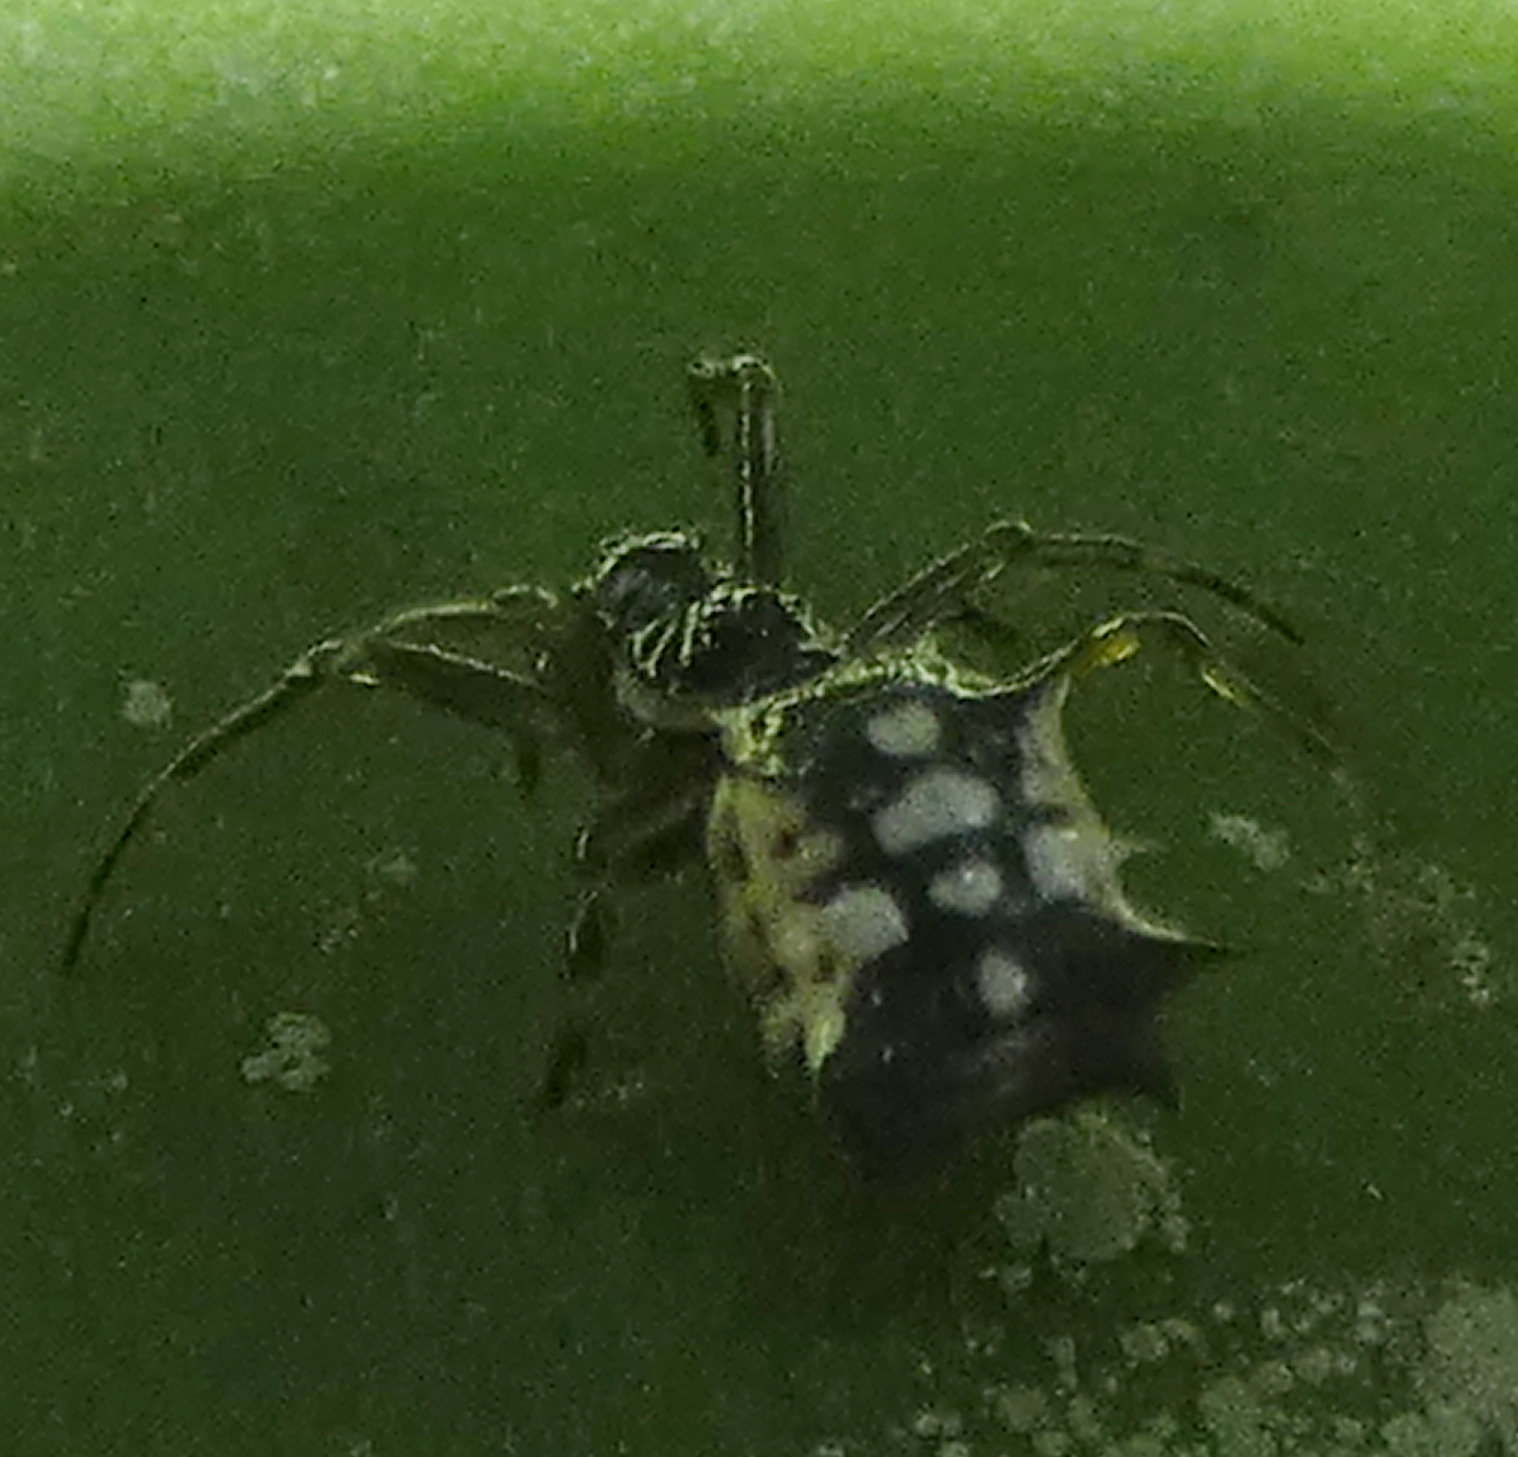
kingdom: Animalia
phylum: Arthropoda
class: Arachnida
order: Araneae
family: Araneidae
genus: Micrathena
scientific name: Micrathena picta
